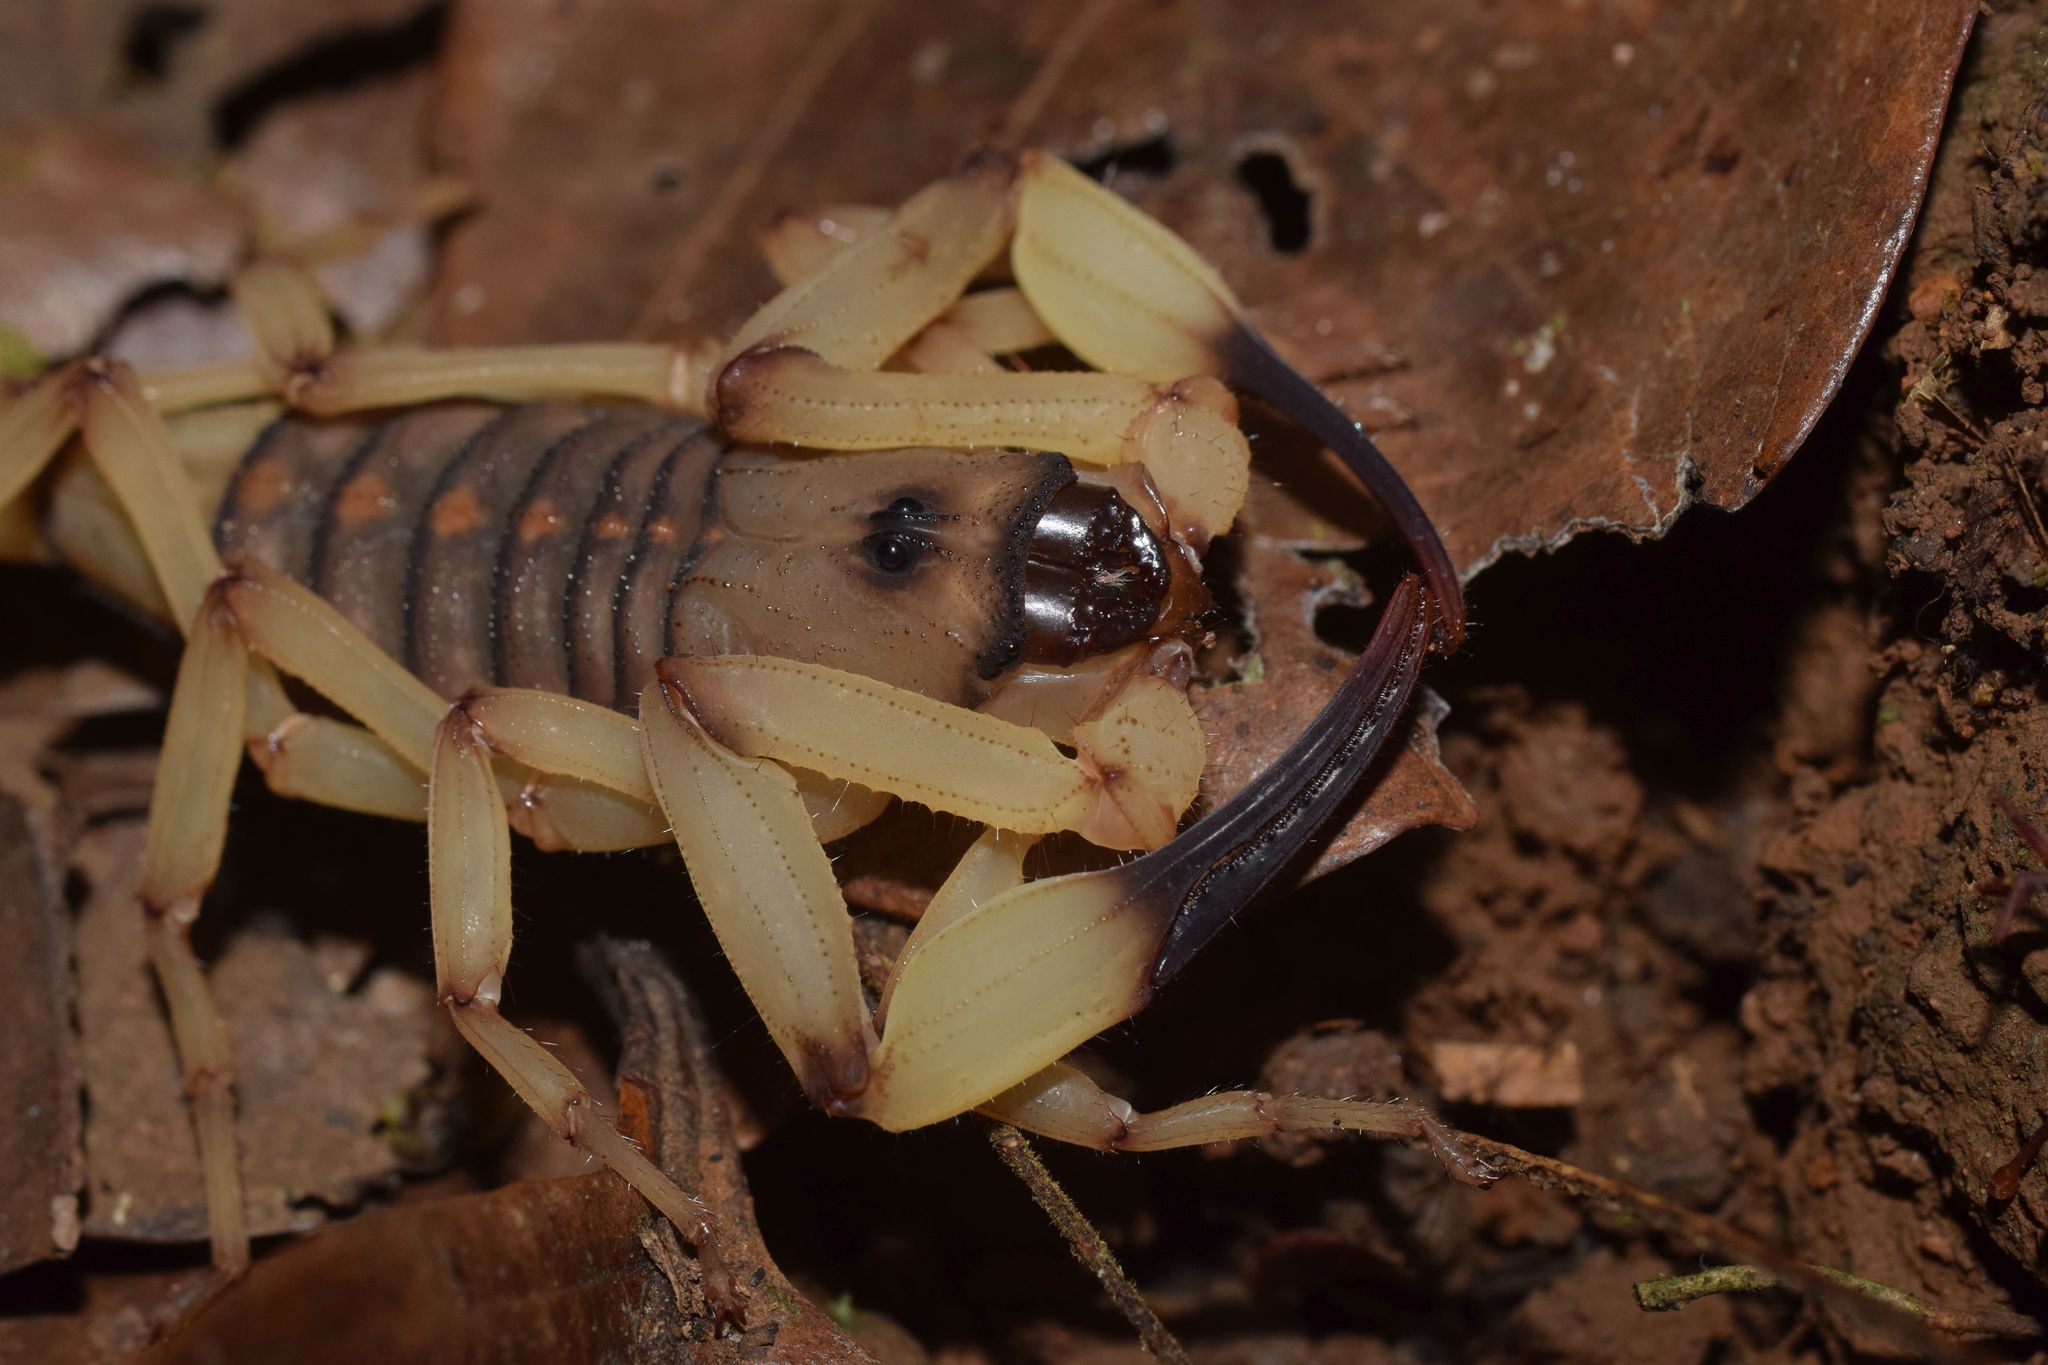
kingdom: Animalia
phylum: Arthropoda
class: Arachnida
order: Scorpiones
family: Buthidae
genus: Centruroides
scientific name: Centruroides limbatus
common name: Scorpions
